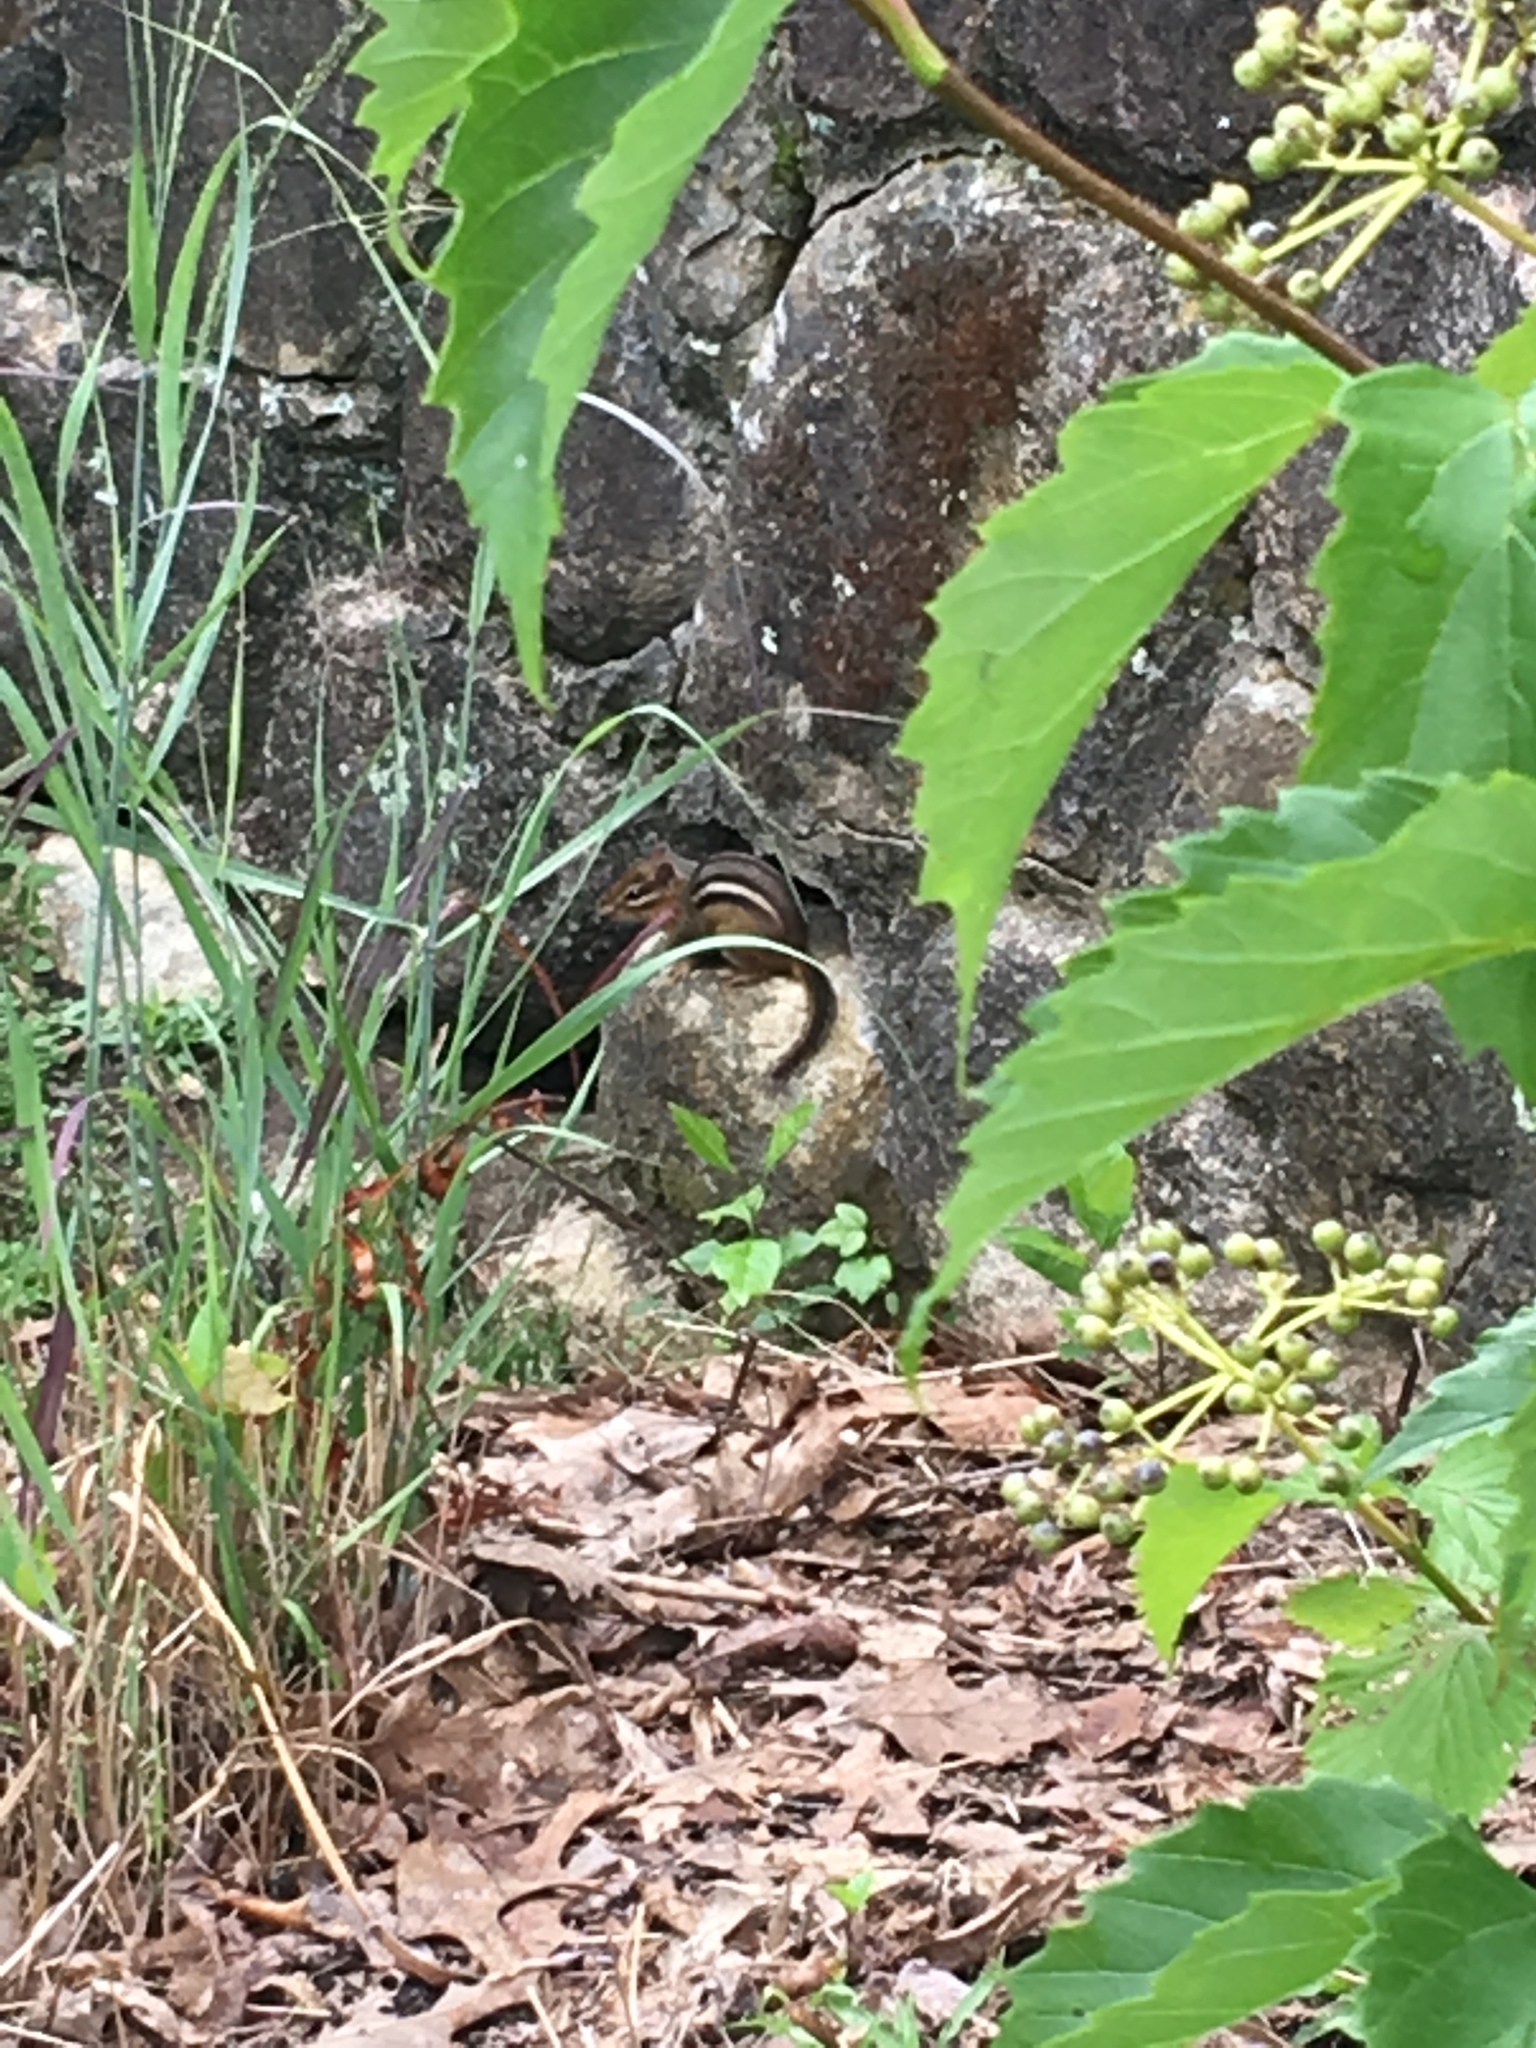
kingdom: Animalia
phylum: Chordata
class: Mammalia
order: Rodentia
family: Sciuridae
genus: Tamias
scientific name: Tamias striatus
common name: Eastern chipmunk
